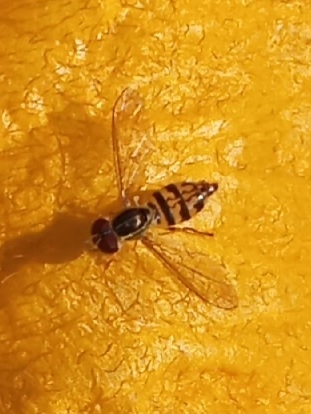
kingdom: Animalia
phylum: Arthropoda
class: Insecta
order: Diptera
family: Syrphidae
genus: Toxomerus
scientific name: Toxomerus geminatus
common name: Eastern calligrapher
